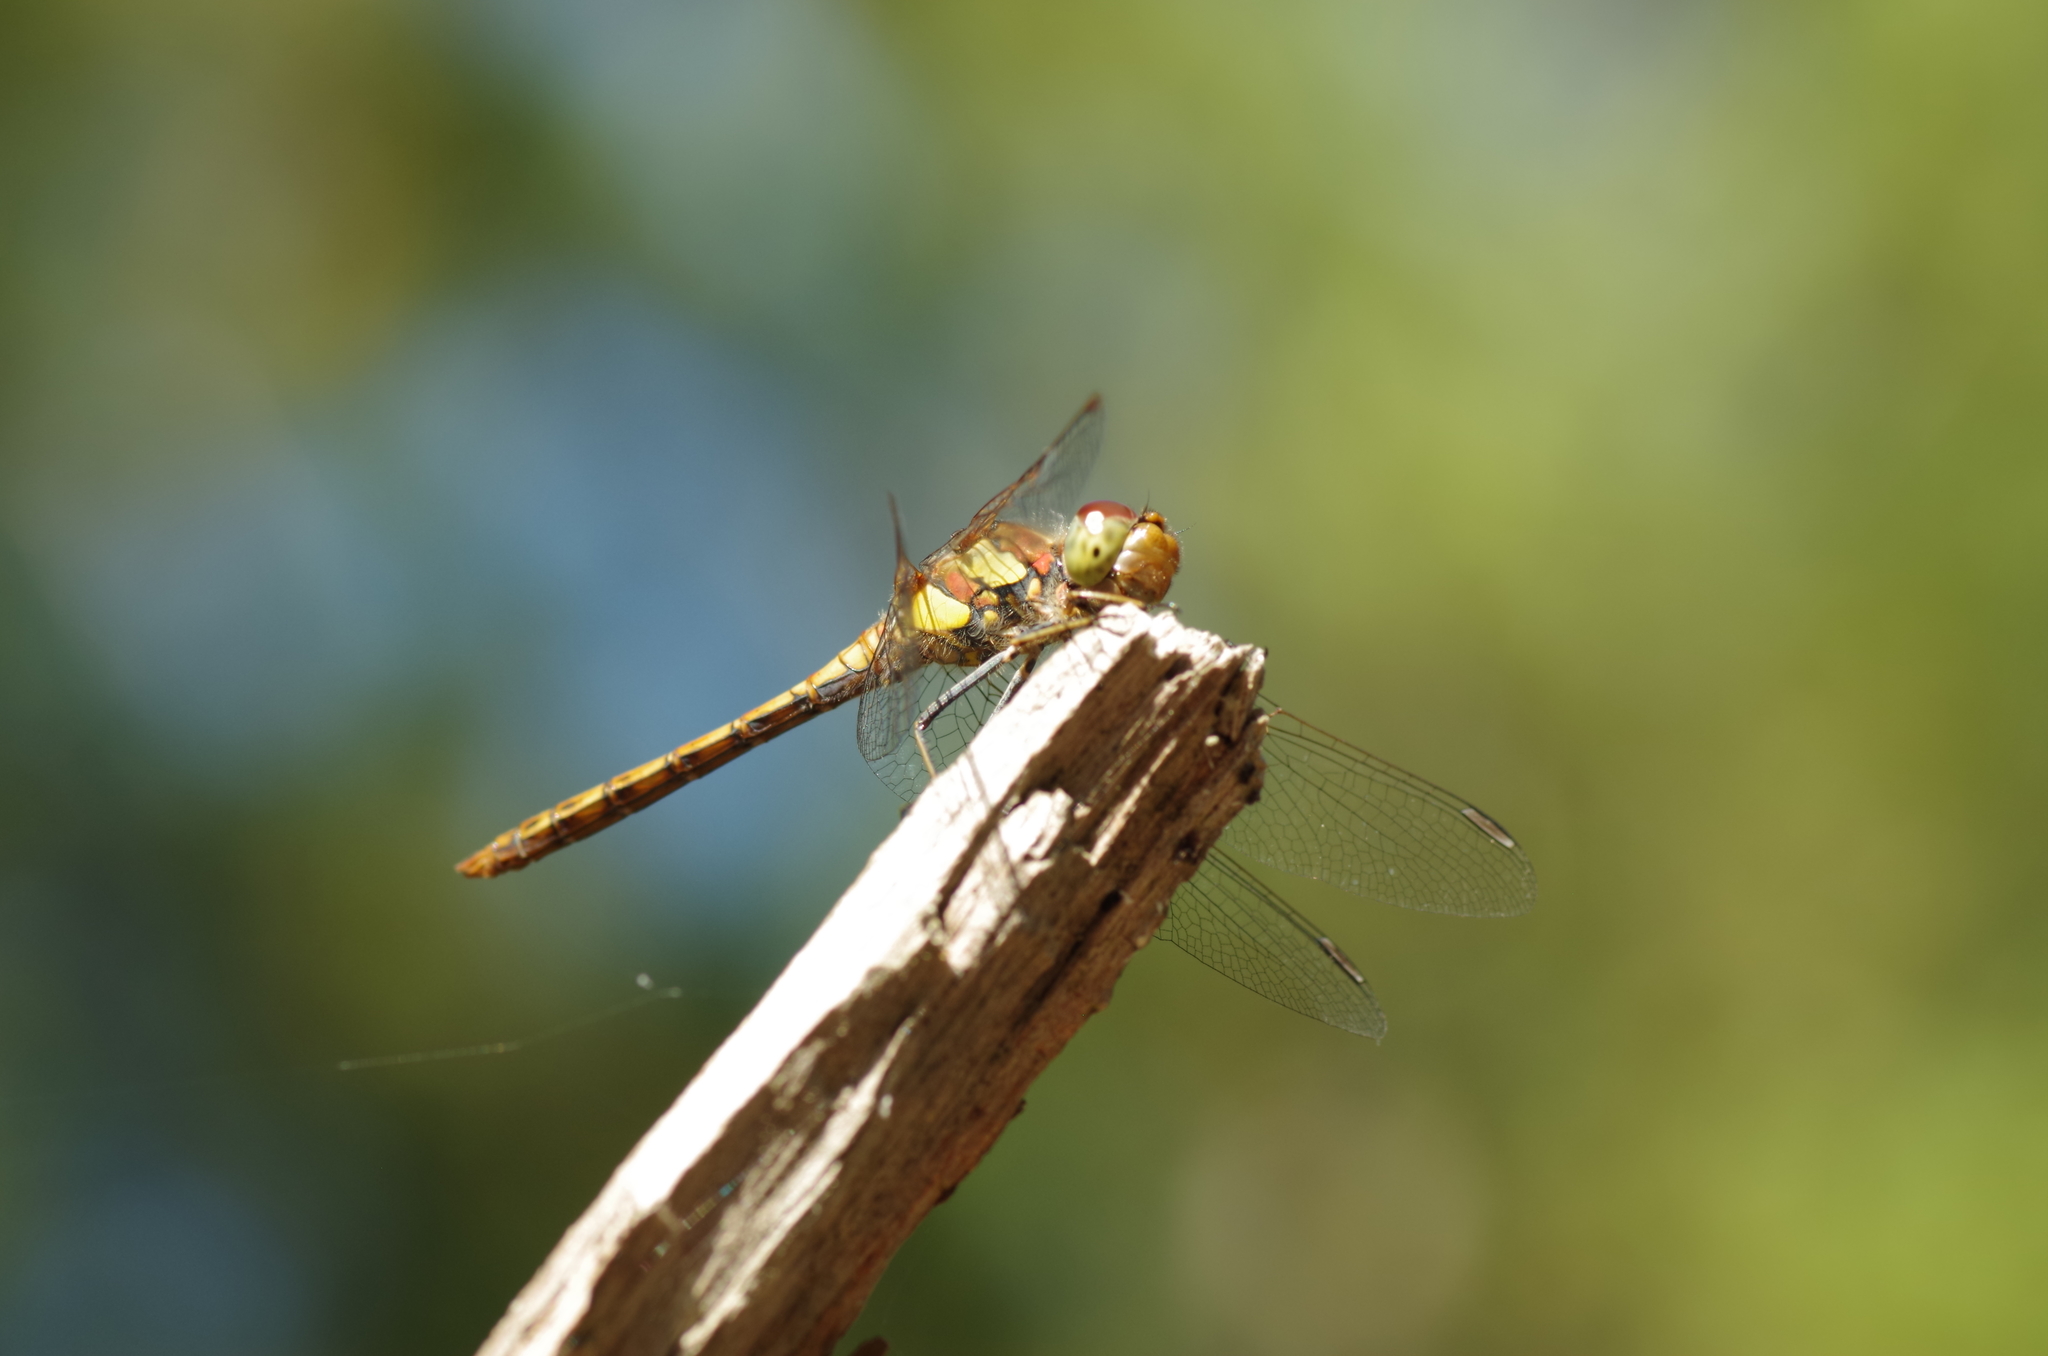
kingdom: Animalia
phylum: Arthropoda
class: Insecta
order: Odonata
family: Libellulidae
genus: Sympetrum
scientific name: Sympetrum striolatum
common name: Common darter
